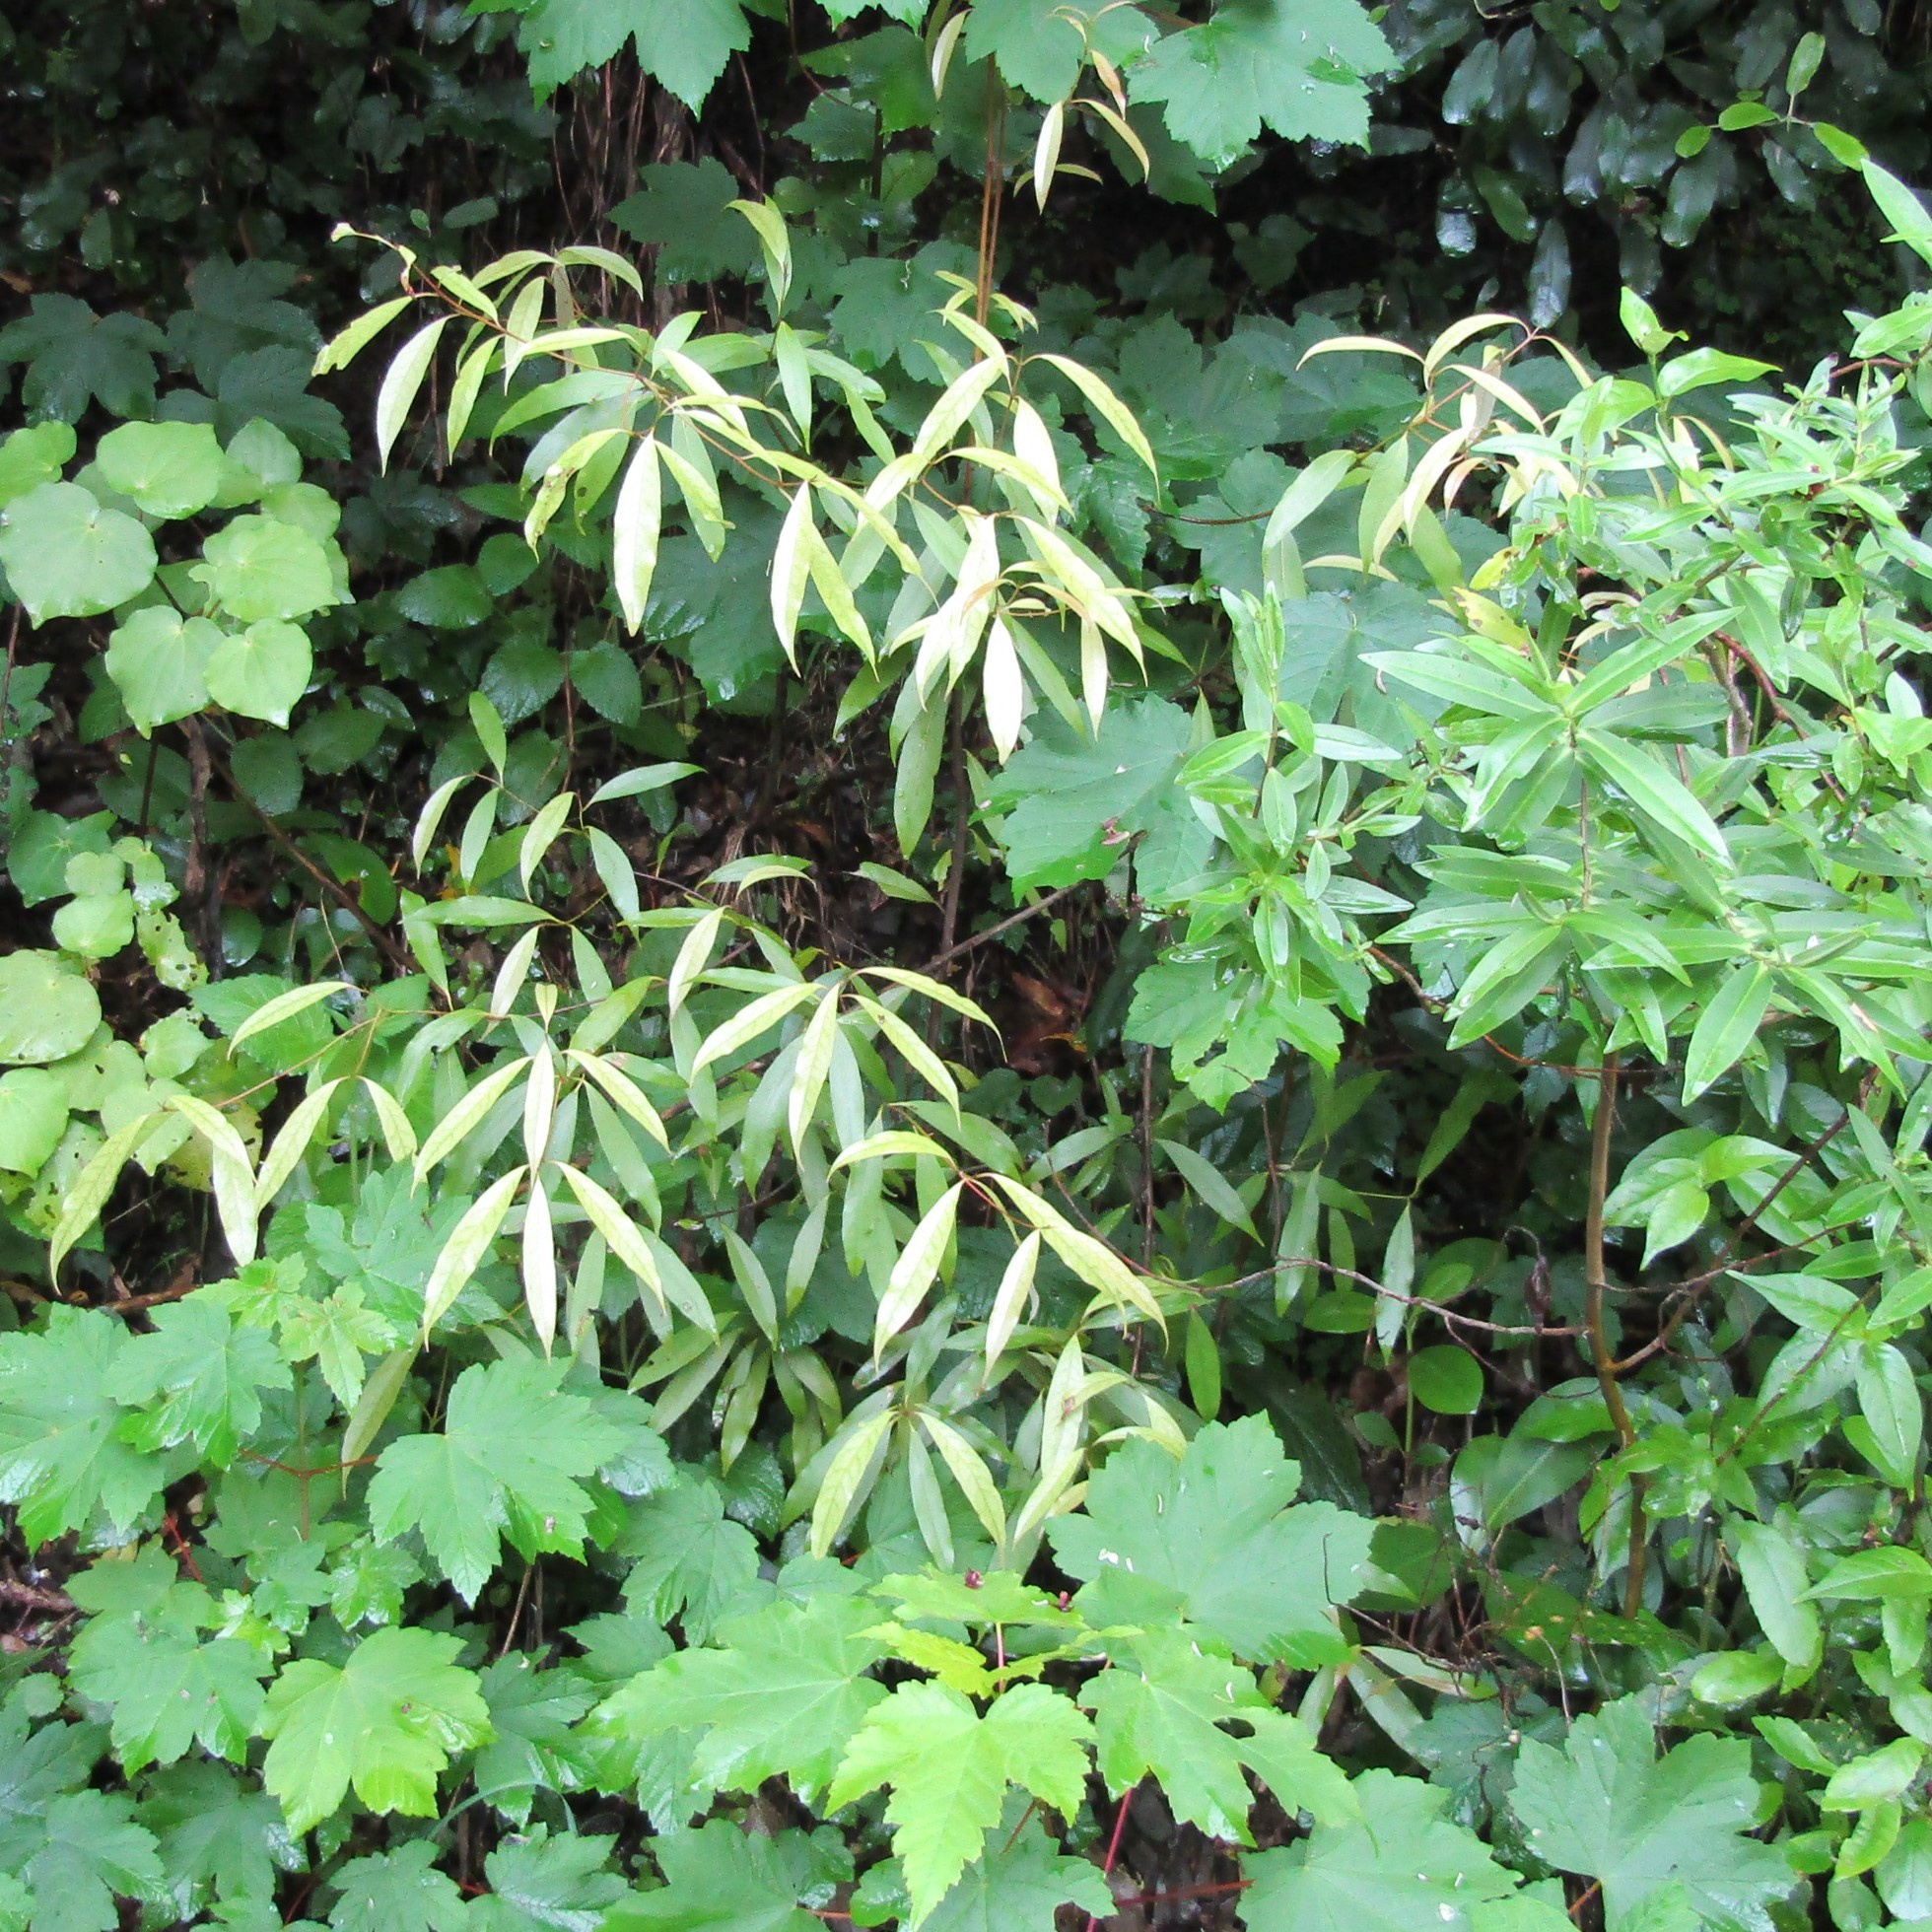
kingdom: Plantae
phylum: Tracheophyta
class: Magnoliopsida
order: Laurales
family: Lauraceae
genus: Beilschmiedia
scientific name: Beilschmiedia tawa
